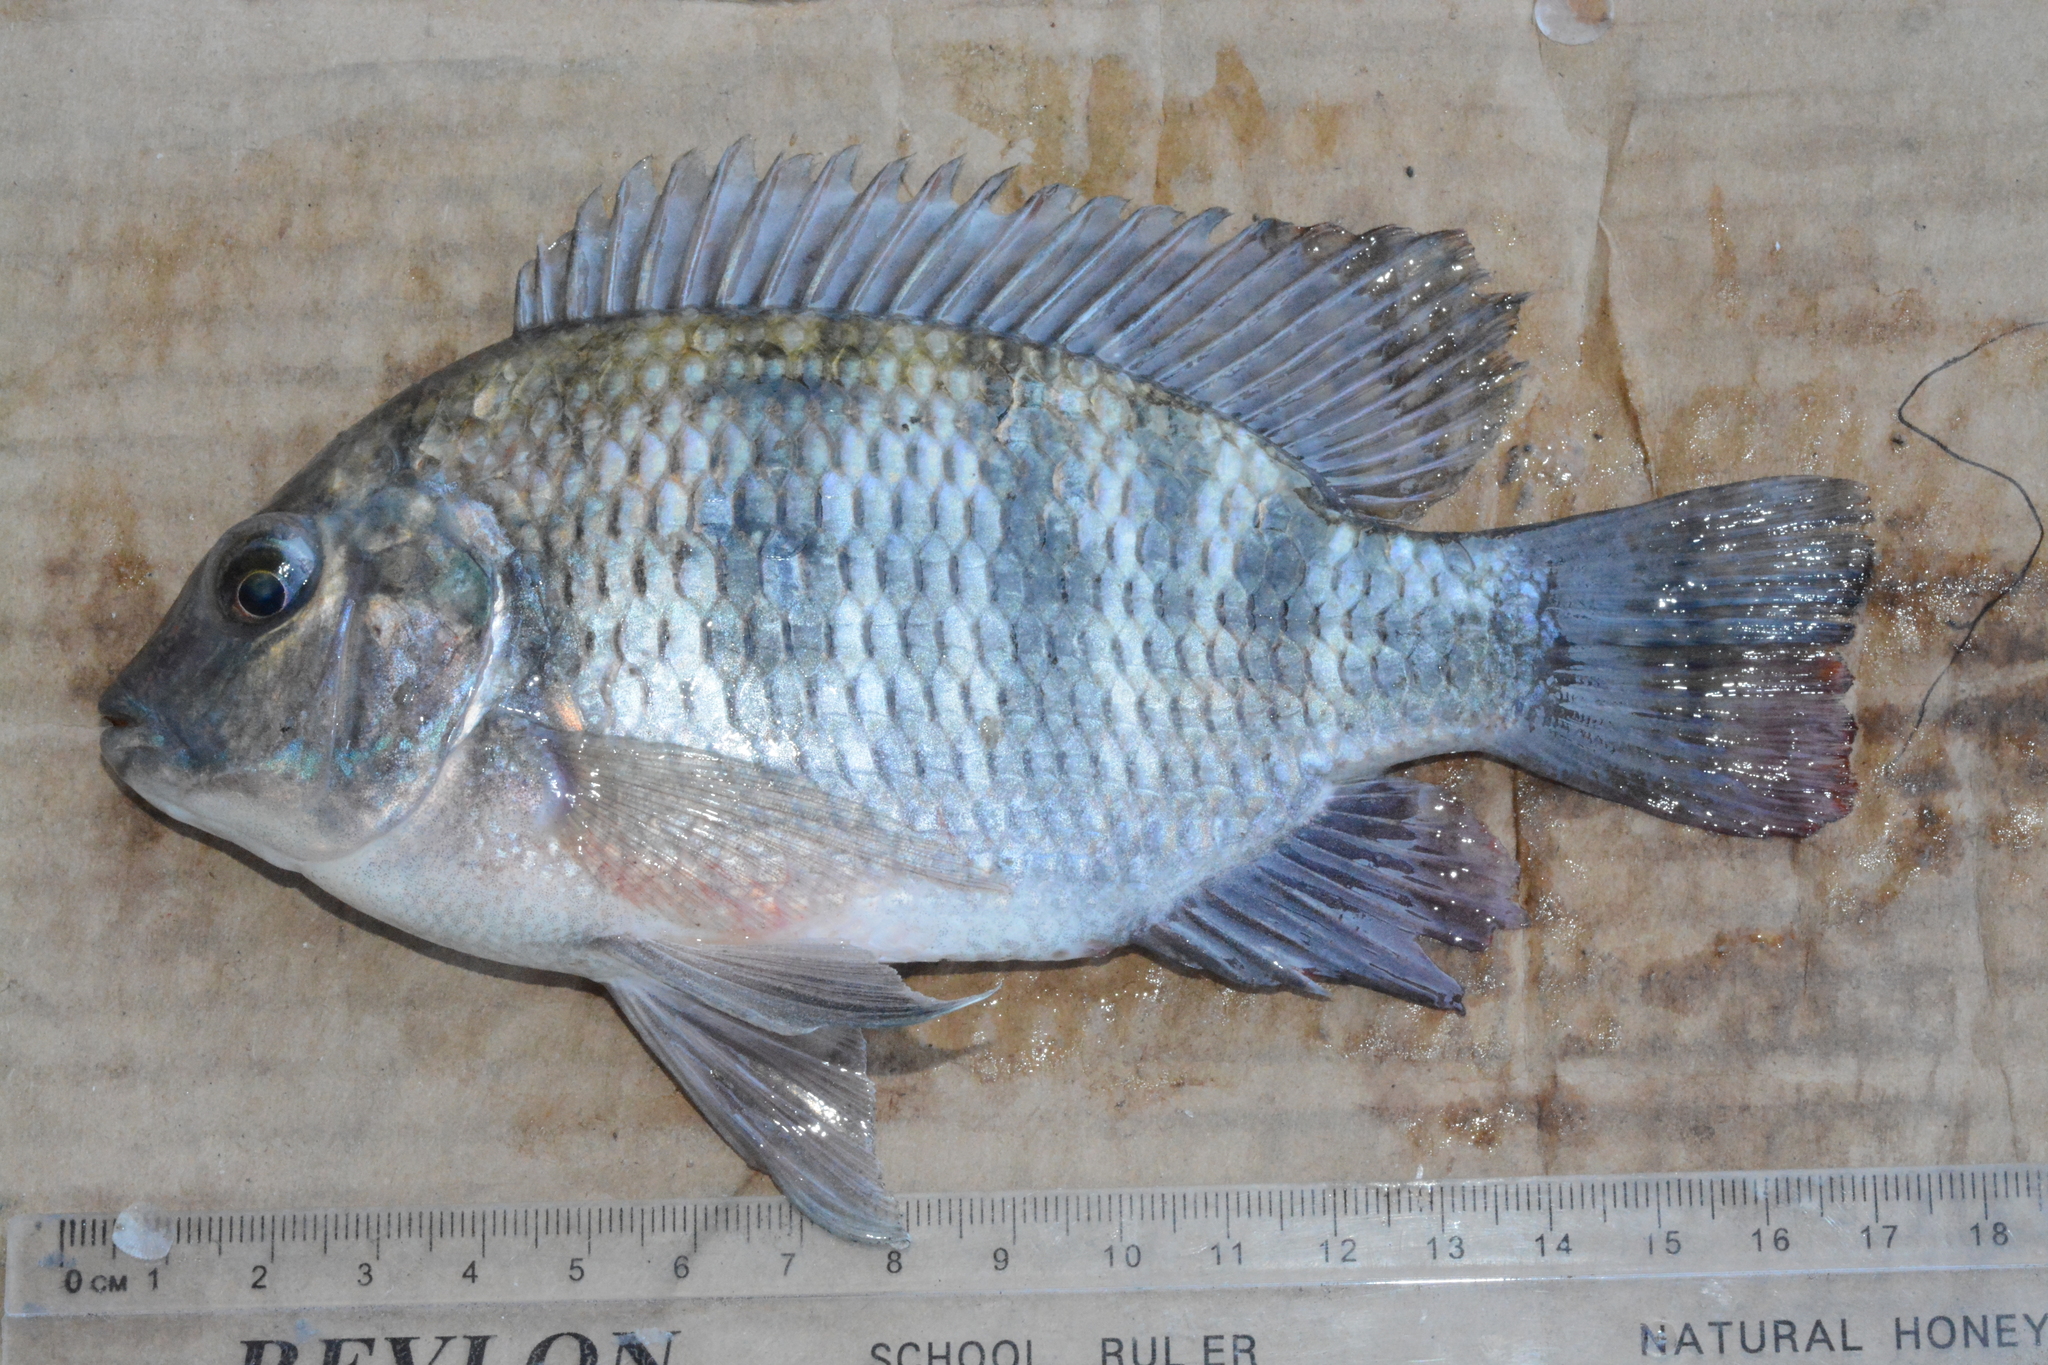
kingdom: Animalia
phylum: Chordata
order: Perciformes
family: Cichlidae
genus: Coptodon
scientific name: Coptodon rendalli
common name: Redbreast tilapia
